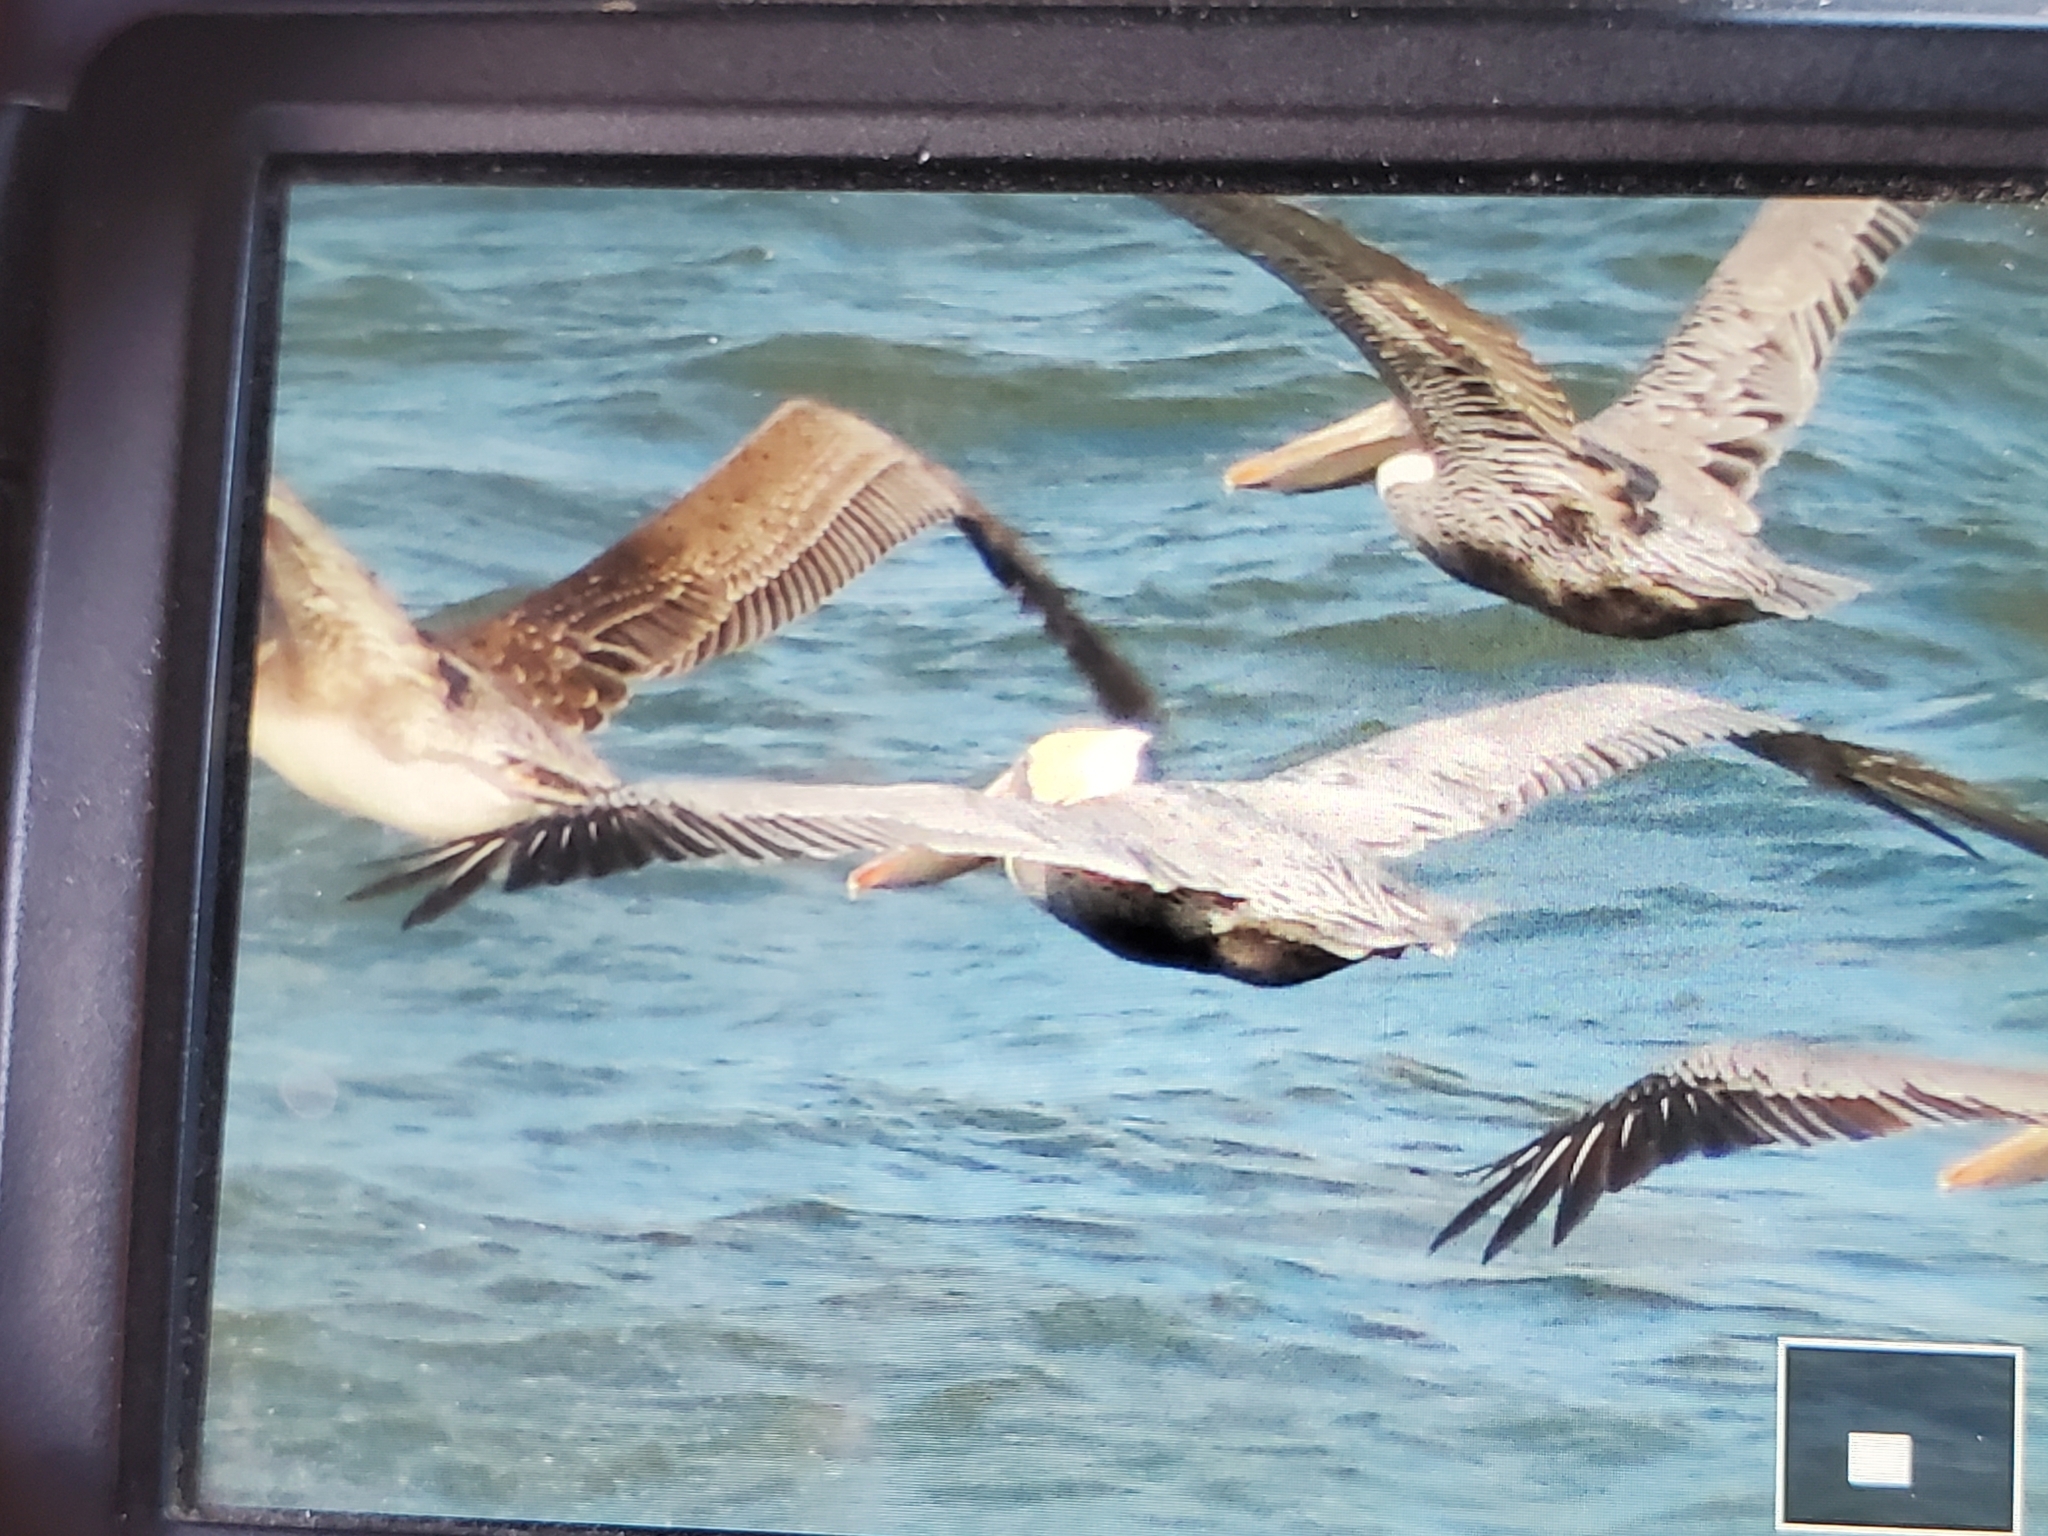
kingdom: Animalia
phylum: Chordata
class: Aves
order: Pelecaniformes
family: Pelecanidae
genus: Pelecanus
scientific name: Pelecanus occidentalis
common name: Brown pelican
